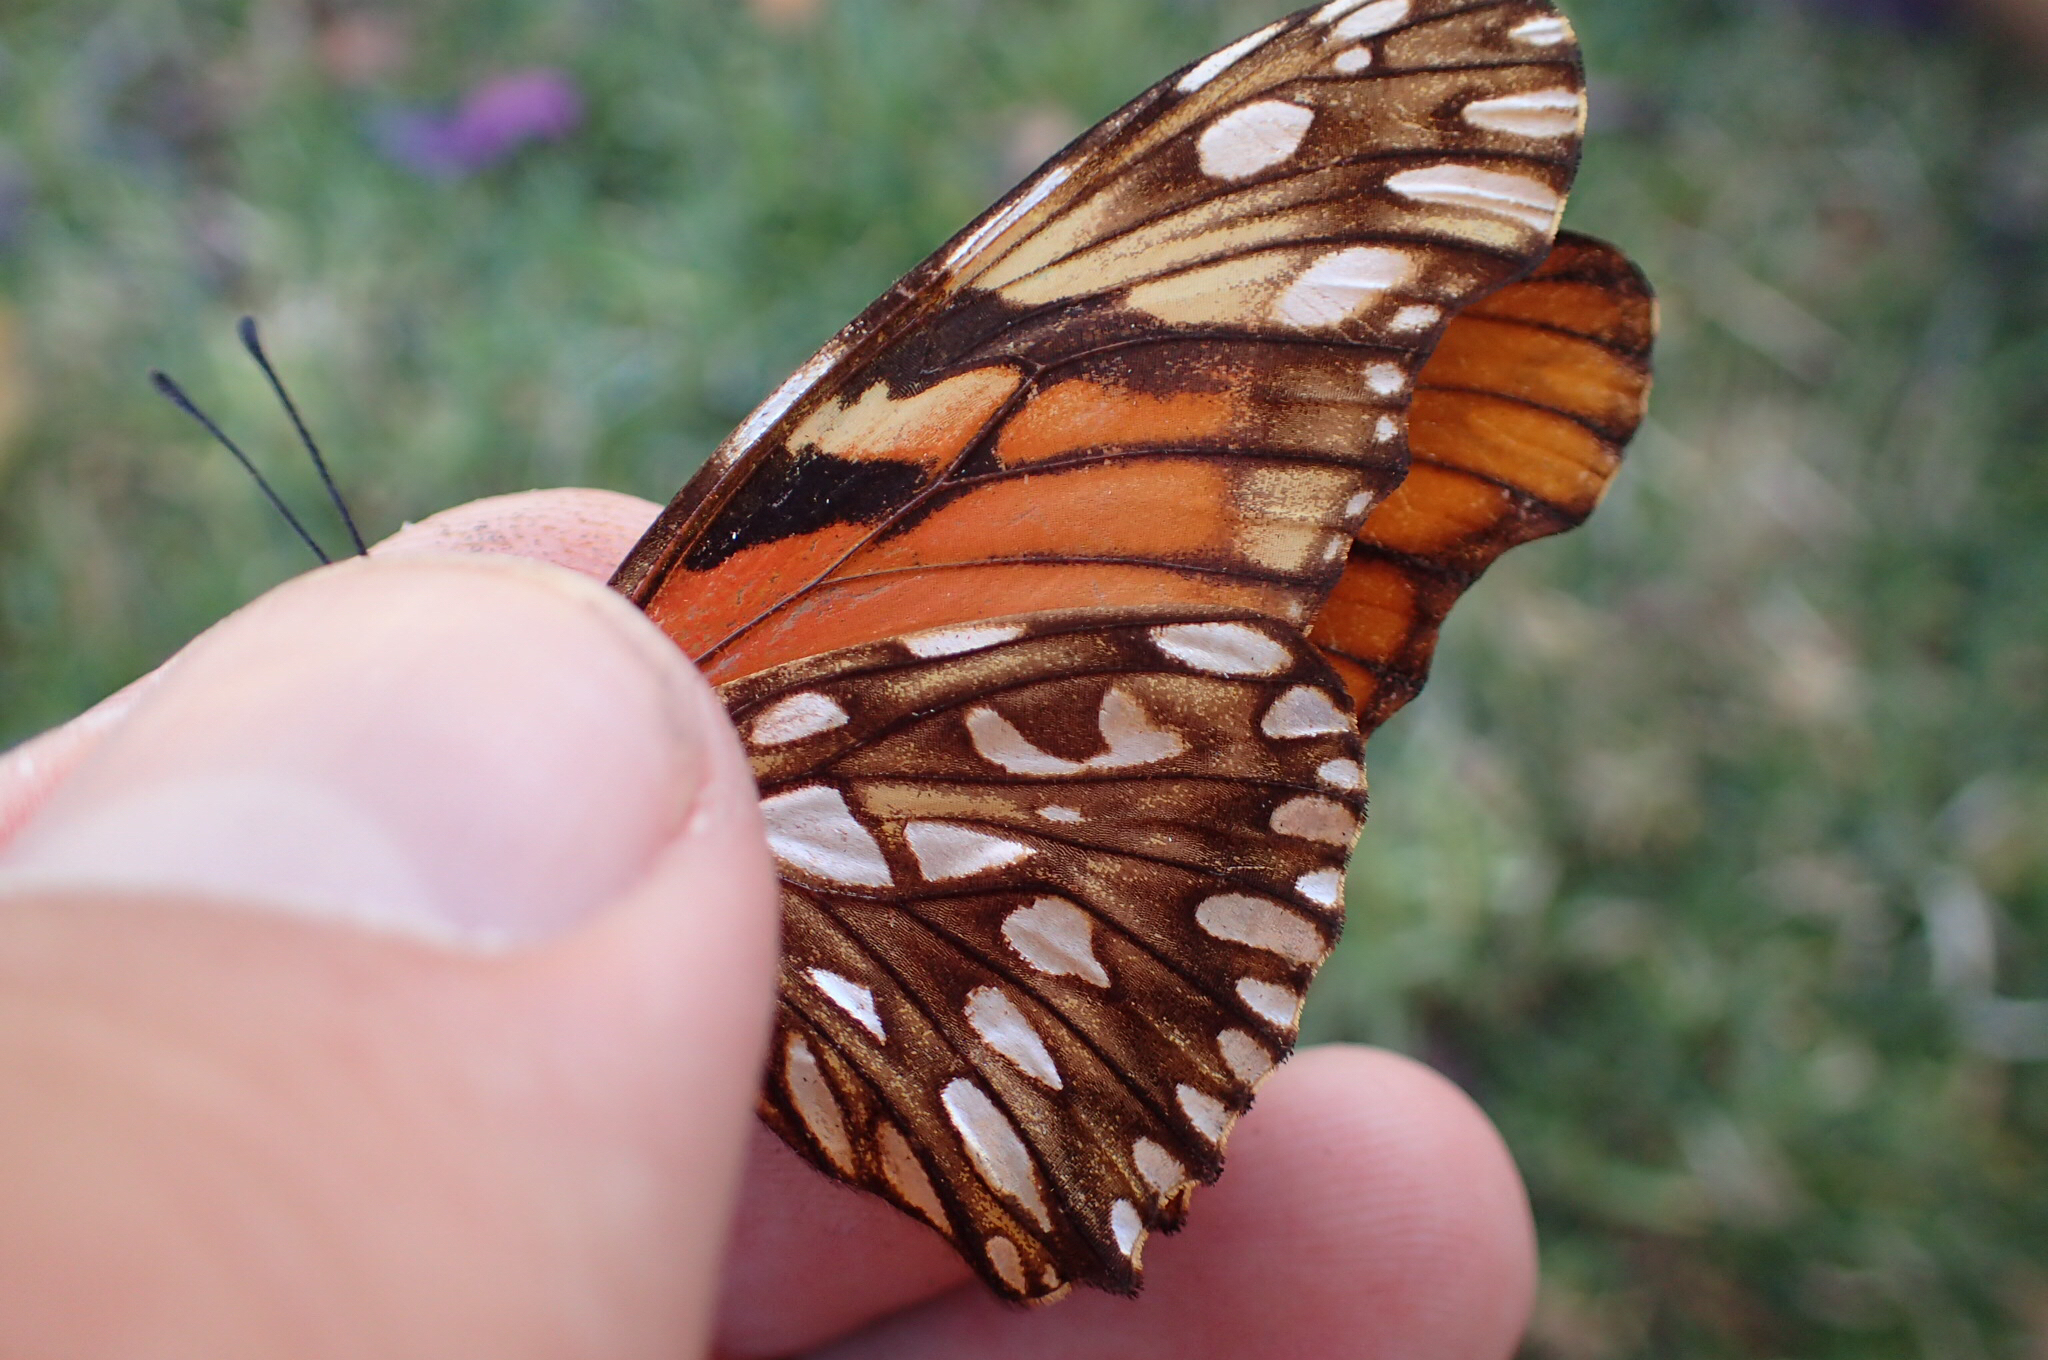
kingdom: Animalia
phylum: Arthropoda
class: Insecta
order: Lepidoptera
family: Nymphalidae
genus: Dione
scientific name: Dione juno
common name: Juno silverspot
